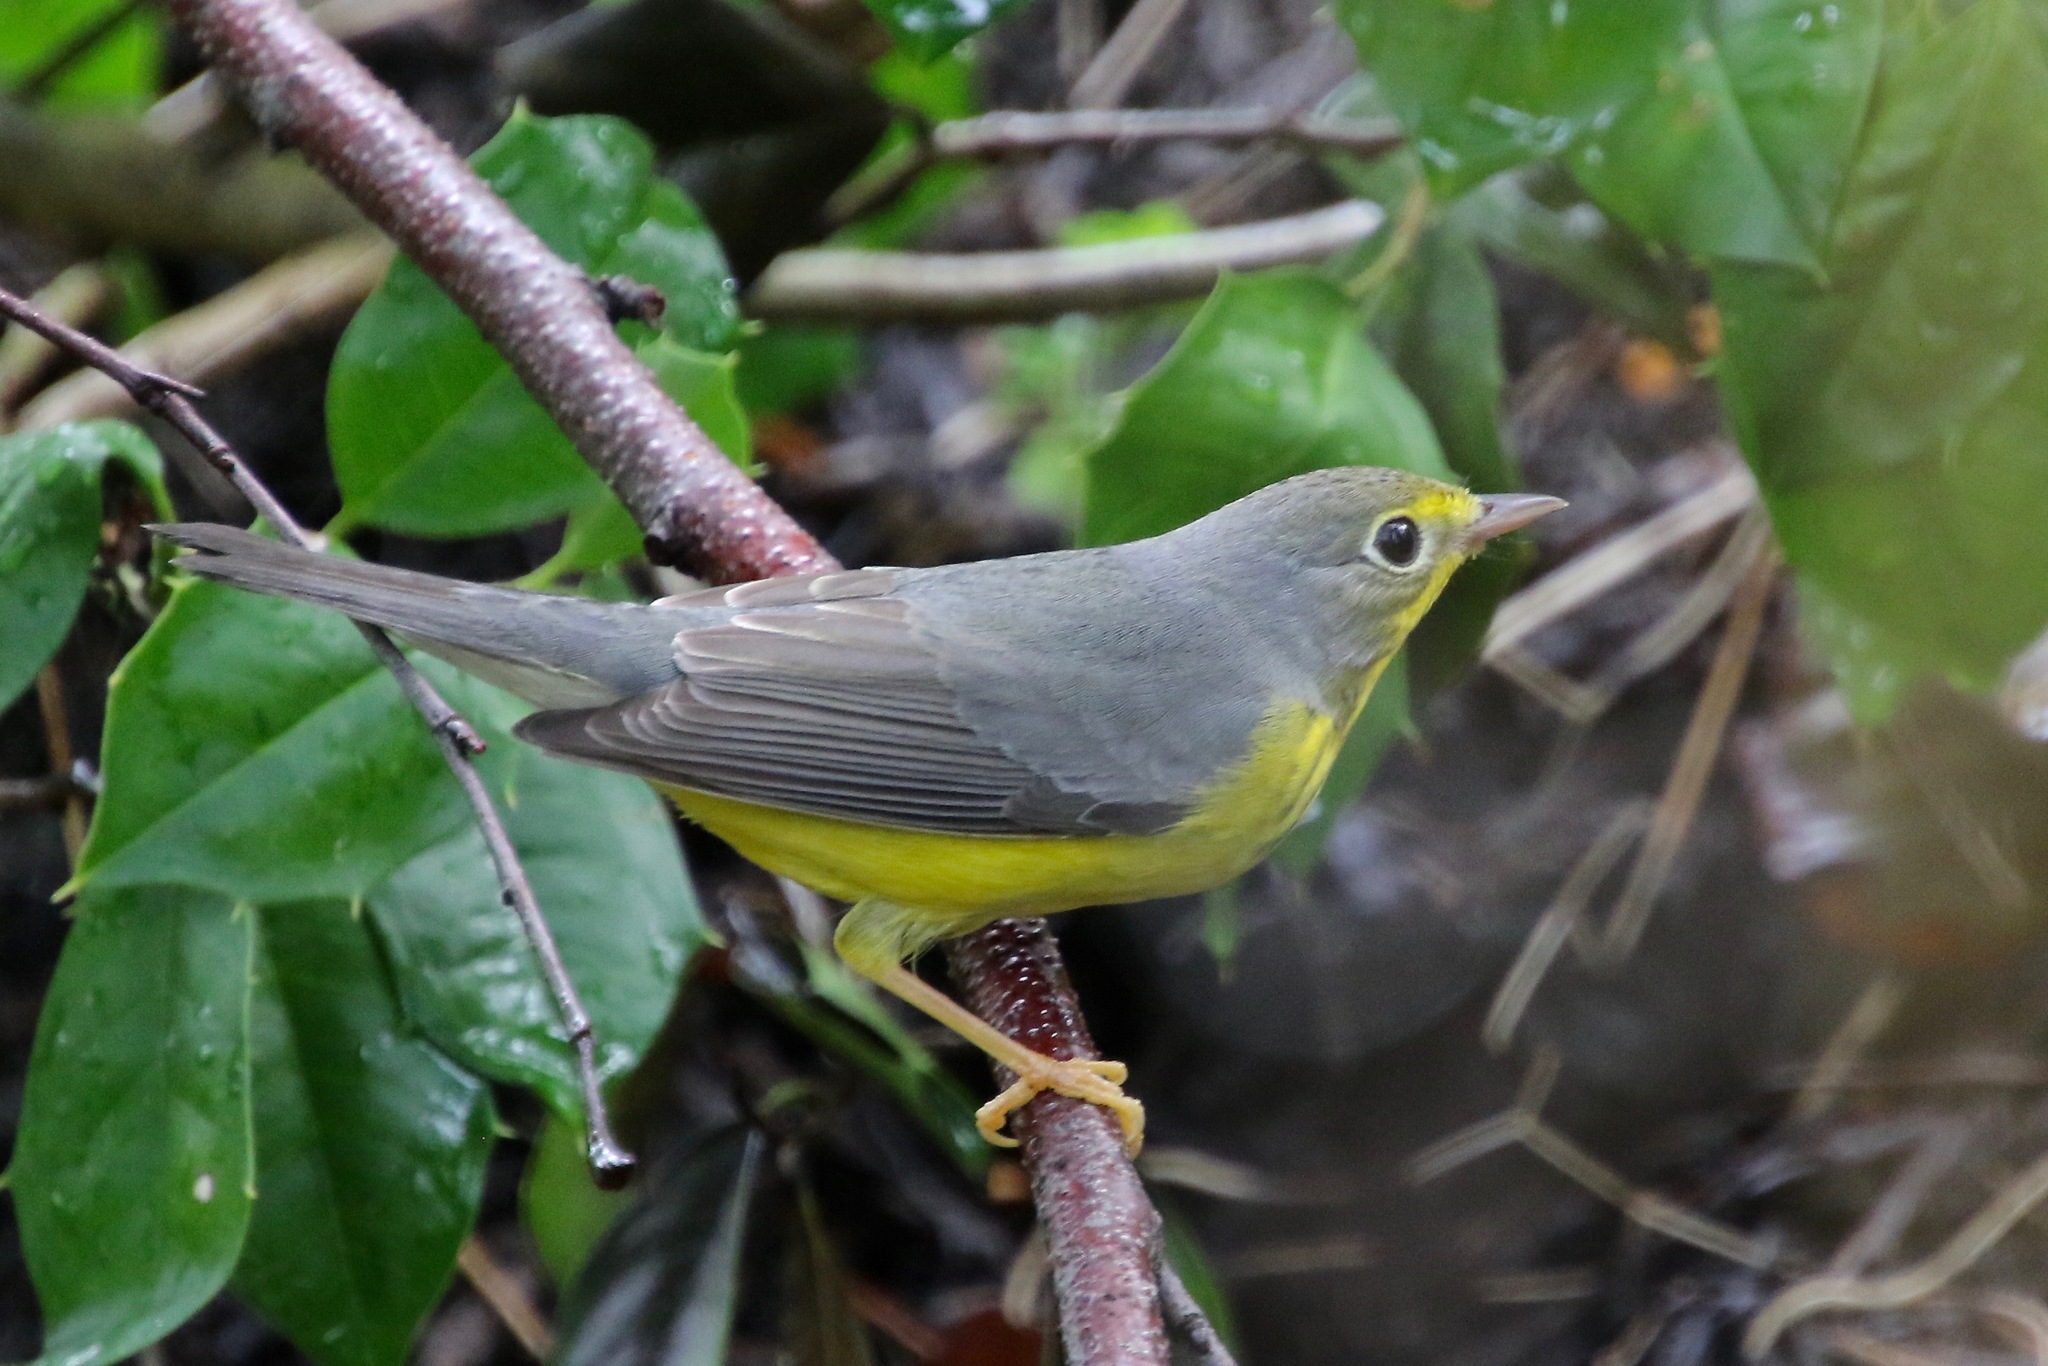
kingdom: Animalia
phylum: Chordata
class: Aves
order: Passeriformes
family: Parulidae
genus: Cardellina
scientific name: Cardellina canadensis
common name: Canada warbler
